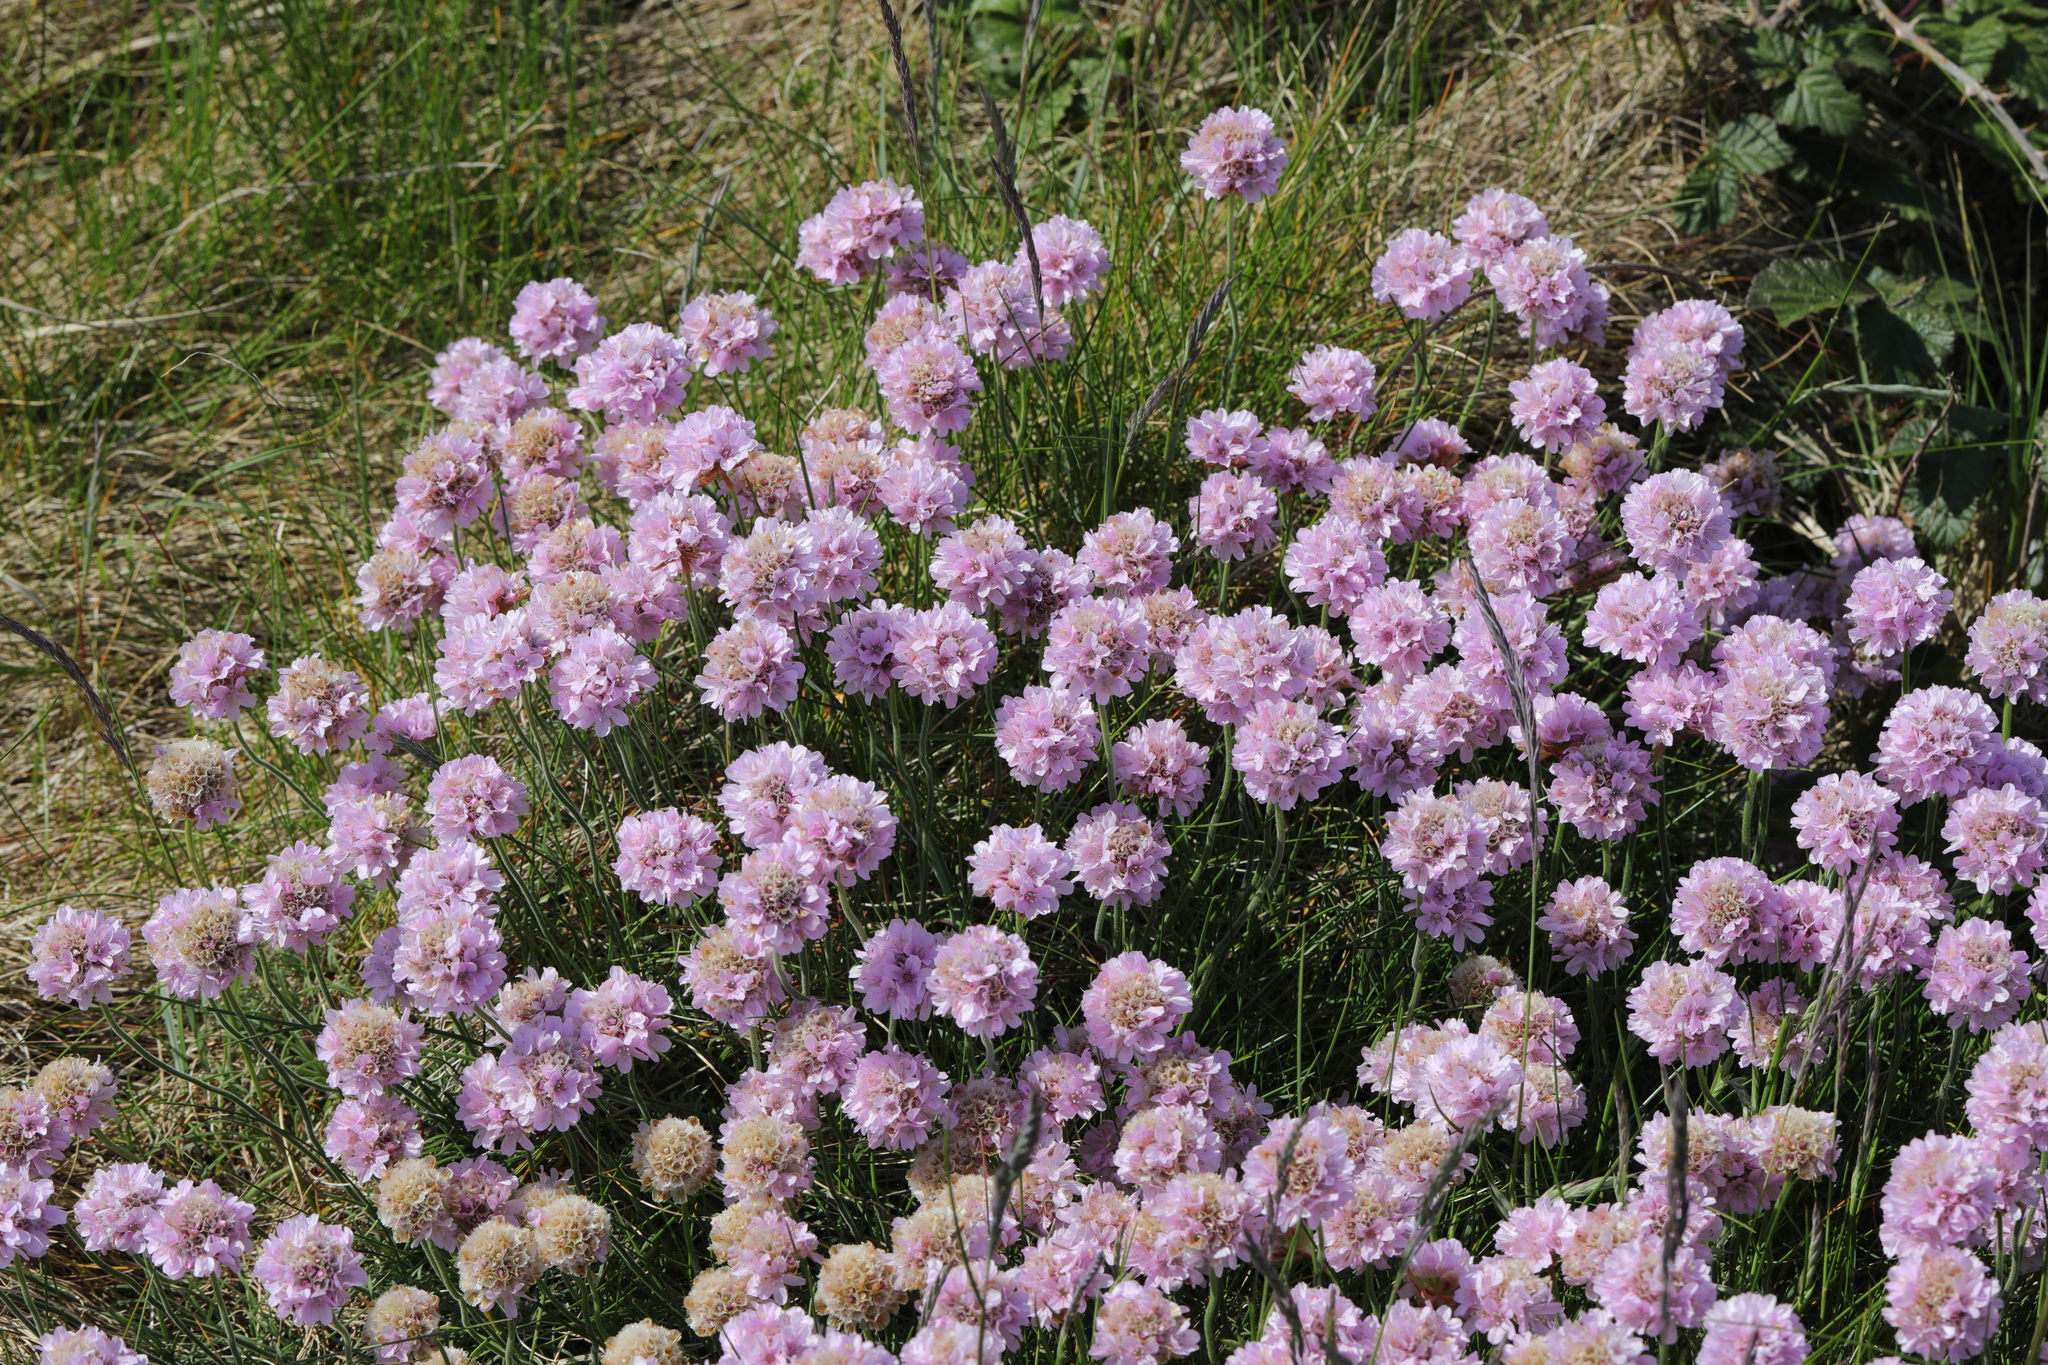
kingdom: Plantae
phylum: Tracheophyta
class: Magnoliopsida
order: Caryophyllales
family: Plumbaginaceae
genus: Armeria
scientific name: Armeria maritima
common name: Thrift
